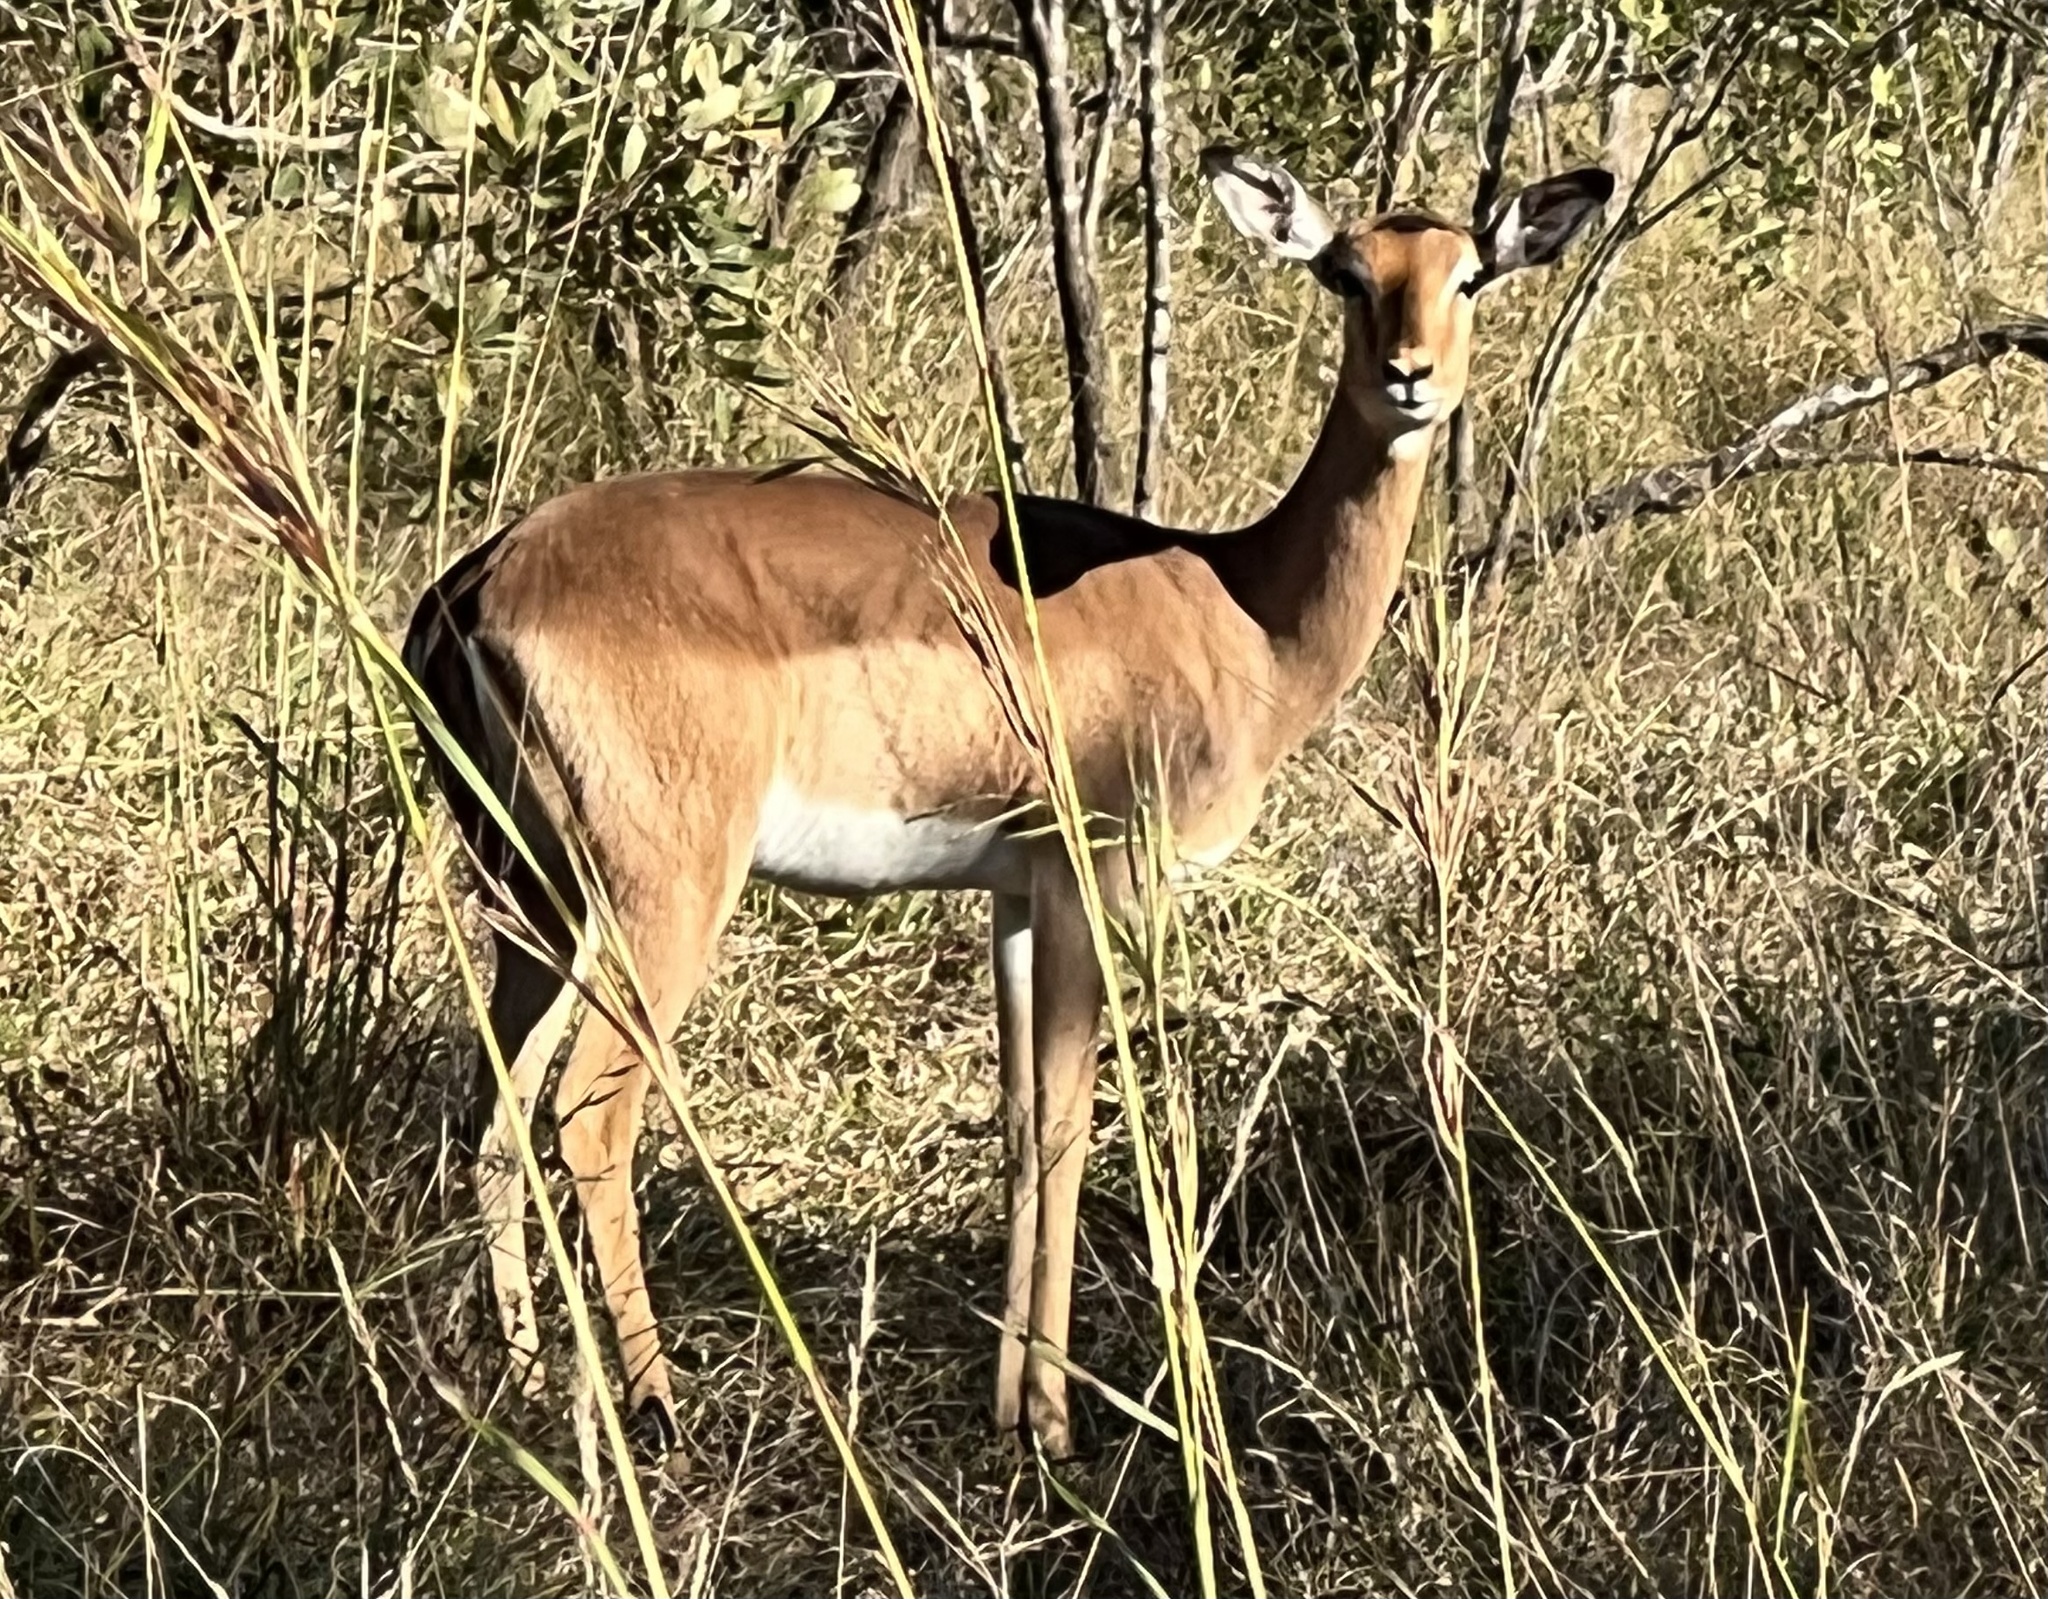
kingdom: Animalia
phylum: Chordata
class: Mammalia
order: Artiodactyla
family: Bovidae
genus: Aepyceros
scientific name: Aepyceros melampus
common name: Impala
